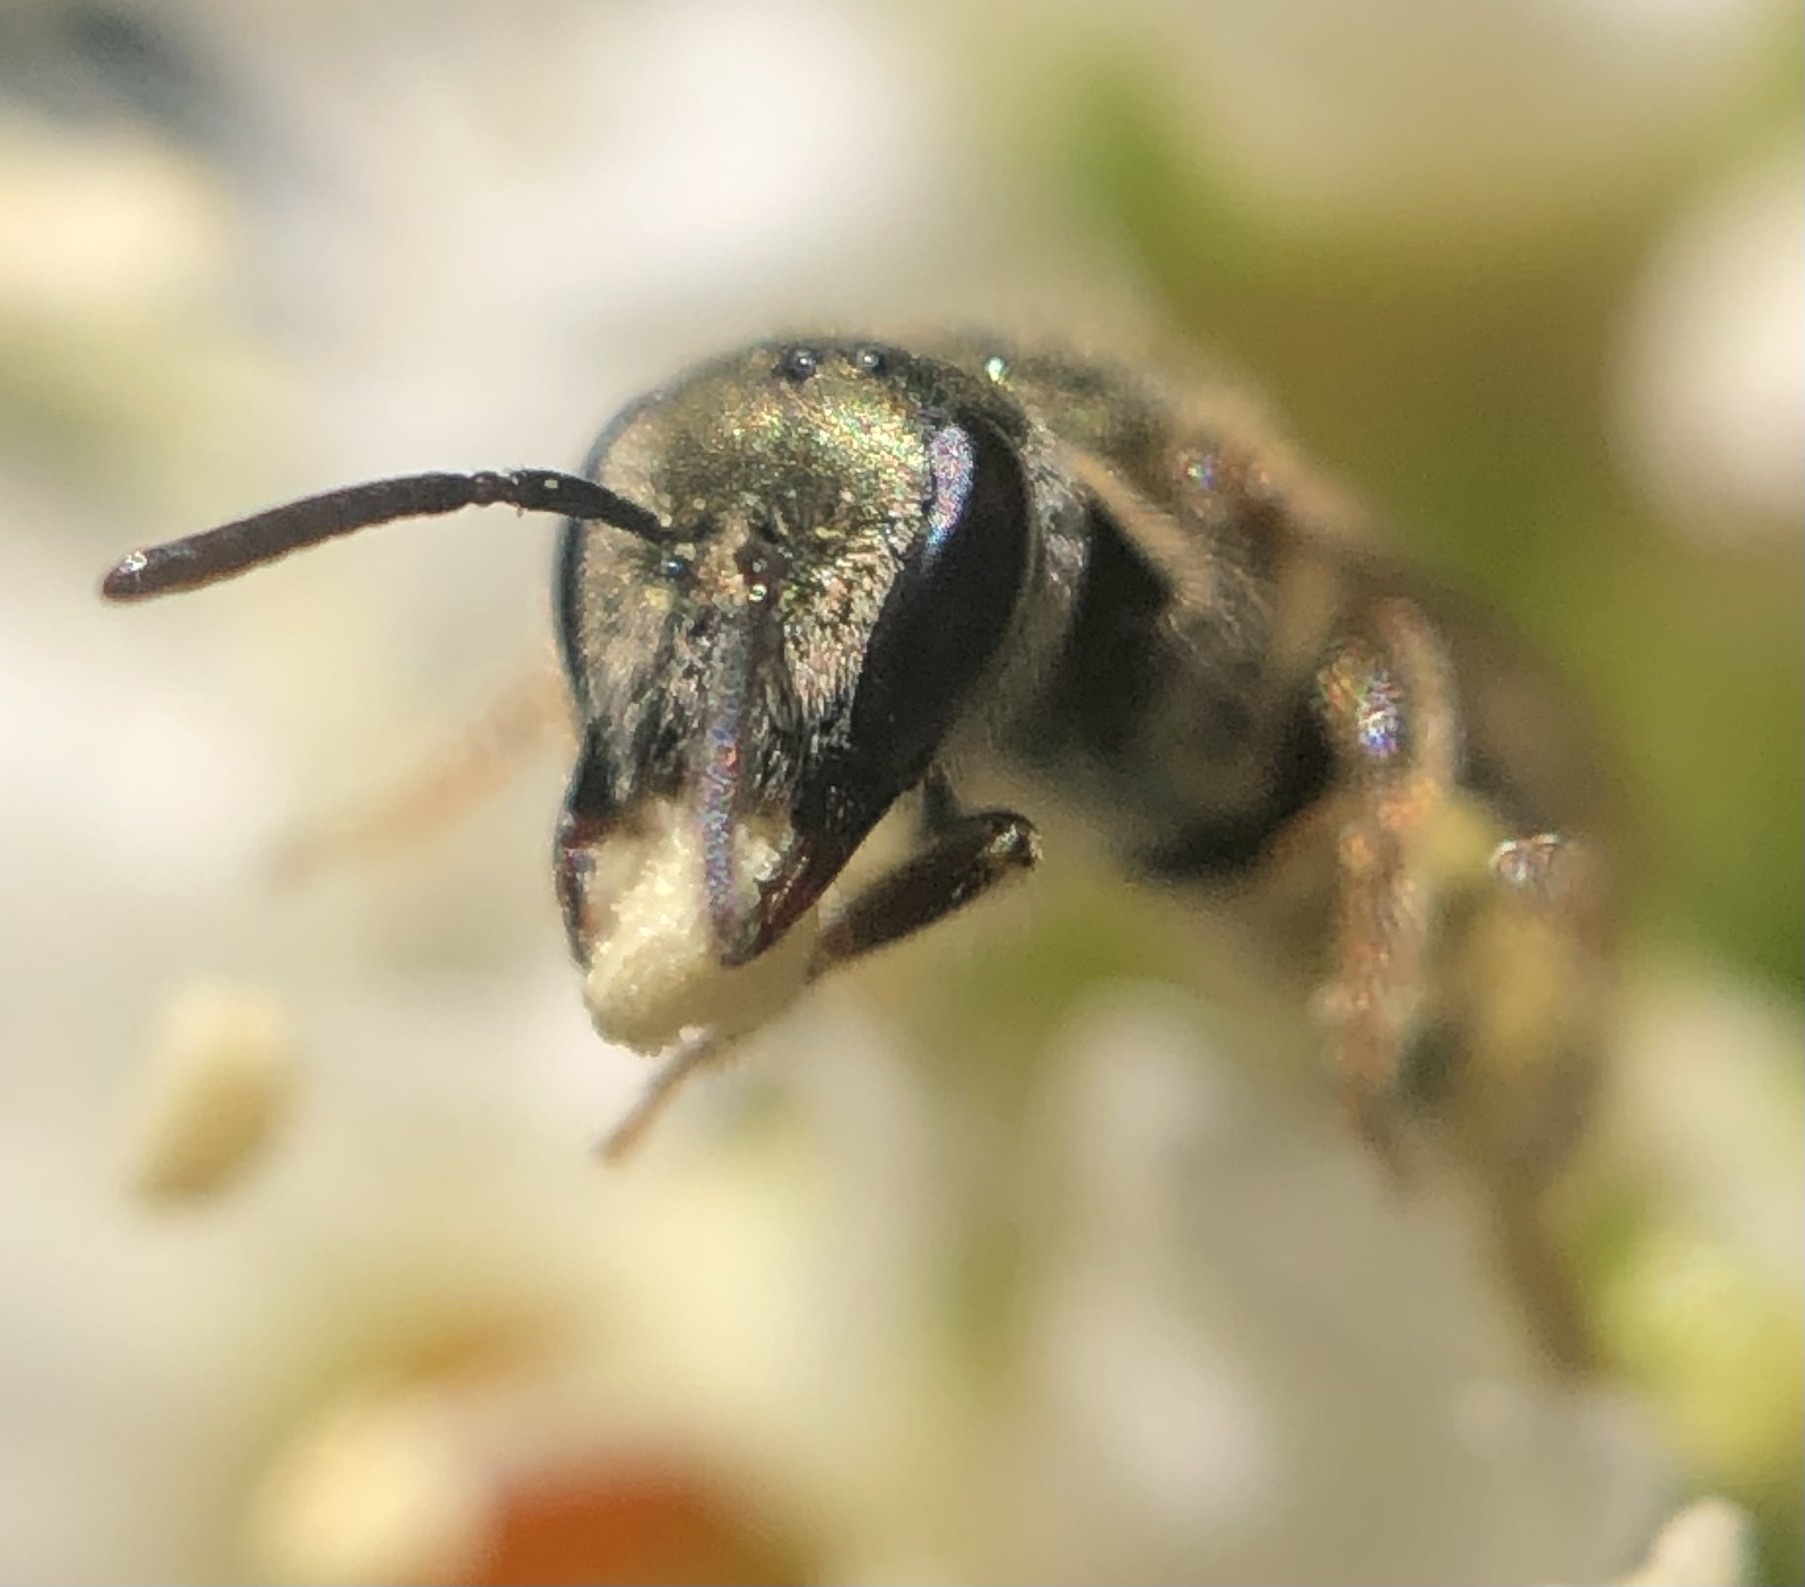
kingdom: Animalia
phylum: Arthropoda
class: Insecta
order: Hymenoptera
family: Halictidae
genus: Lasioglossum
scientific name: Lasioglossum zephyrum
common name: Zephyr sweat bee
